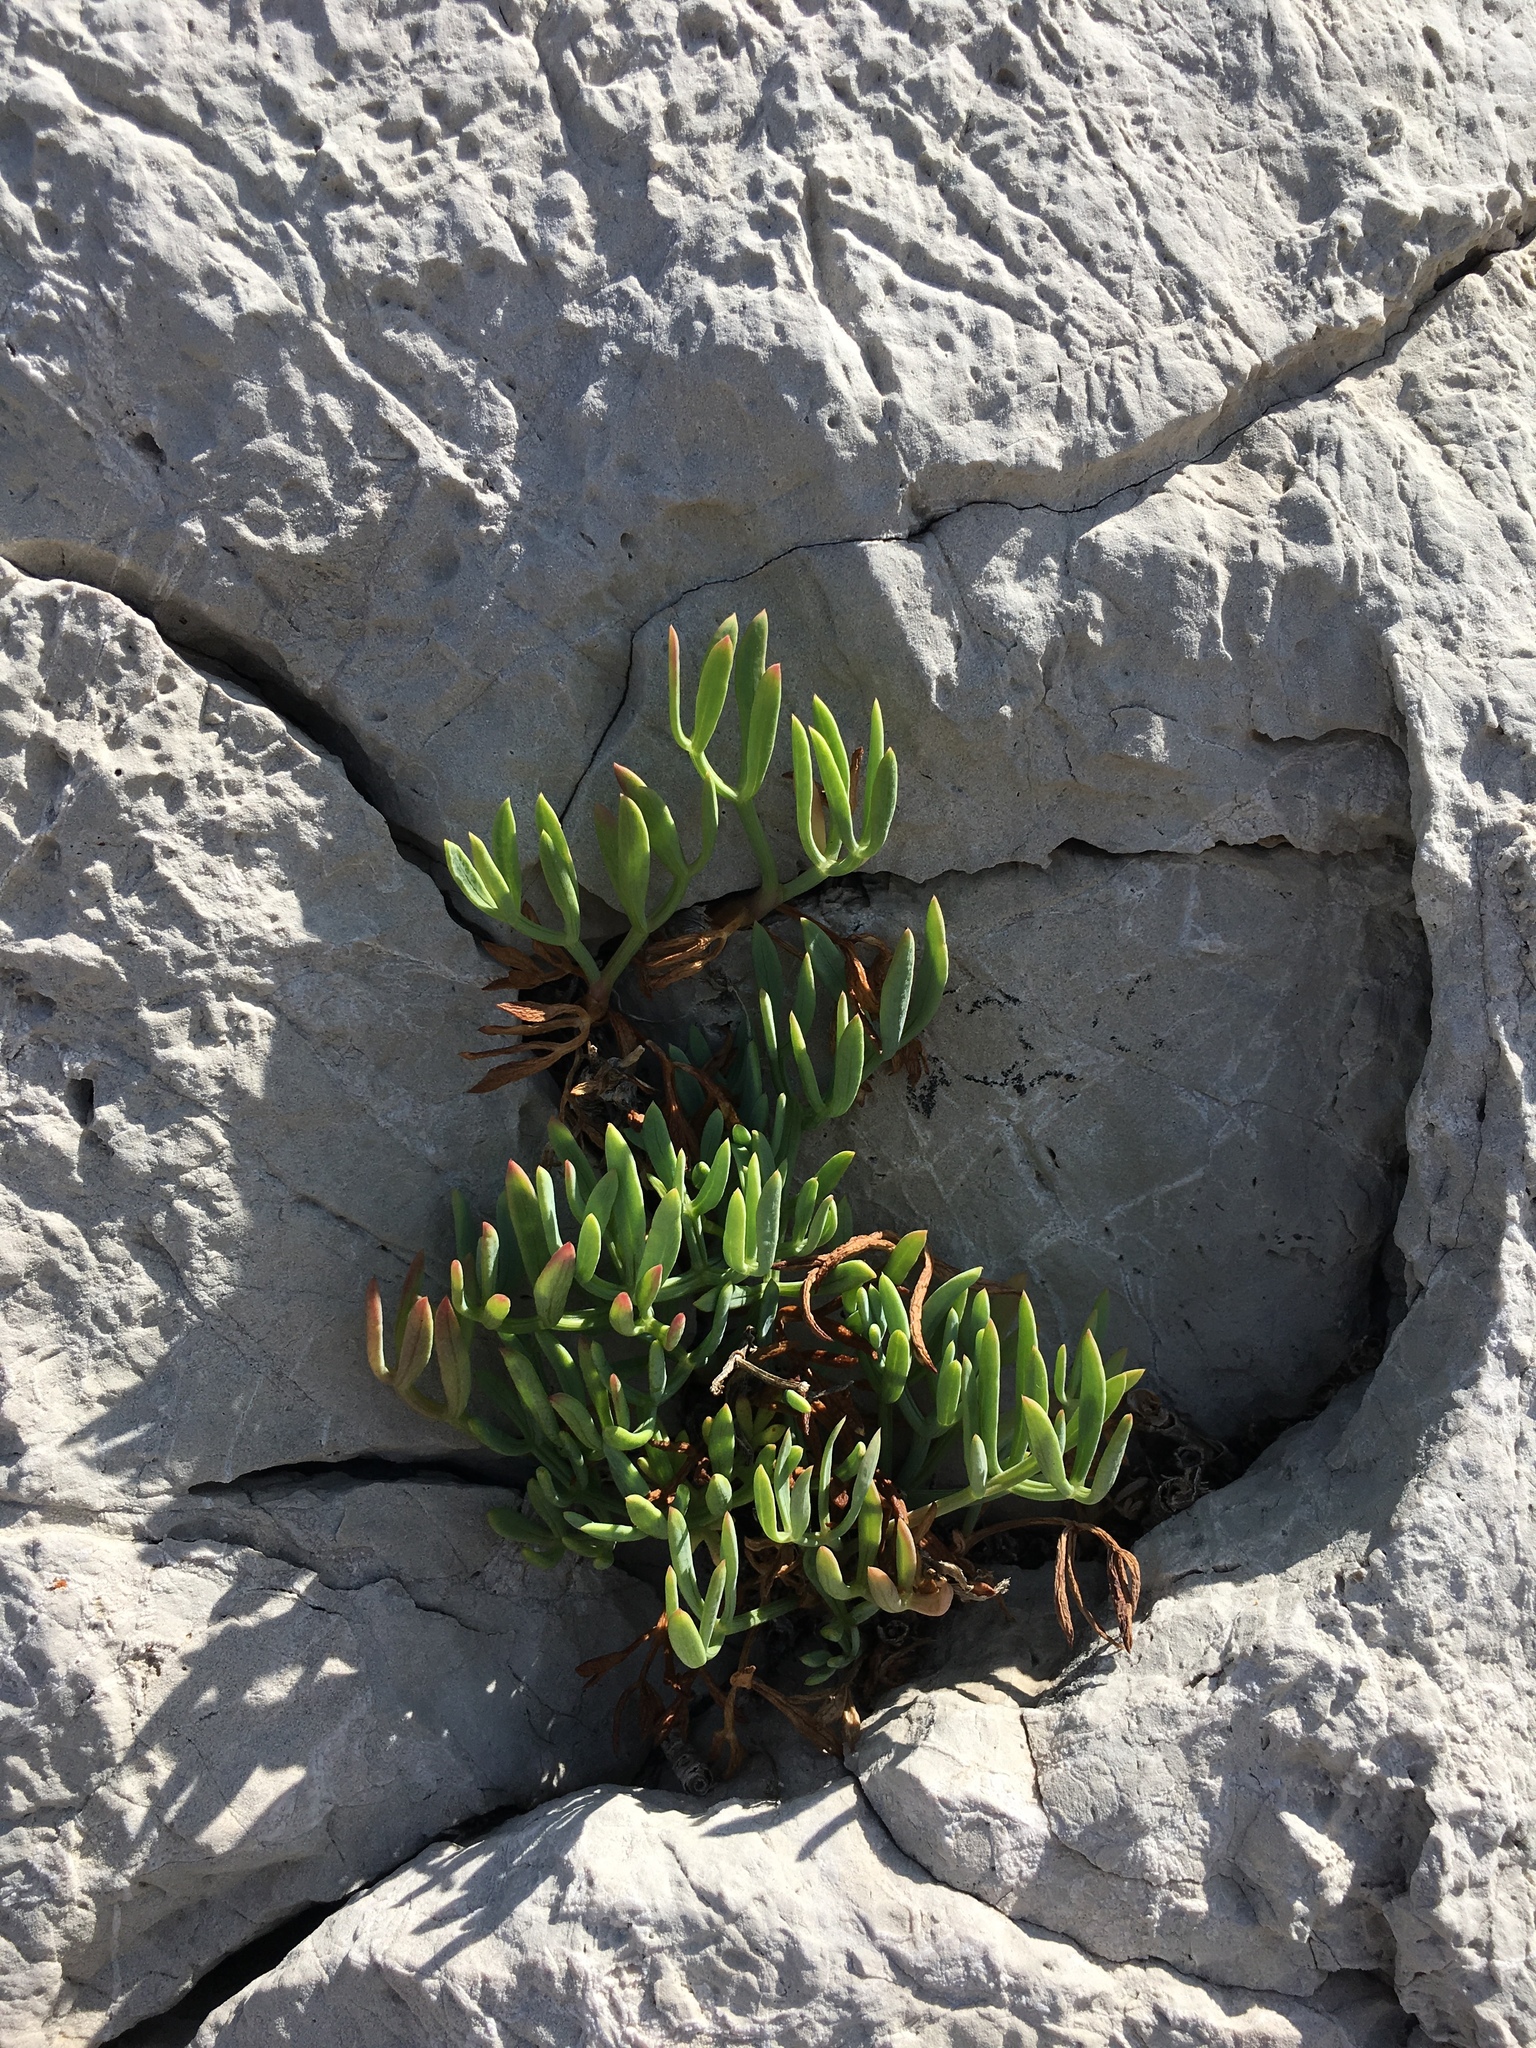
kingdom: Plantae
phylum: Tracheophyta
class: Magnoliopsida
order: Apiales
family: Apiaceae
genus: Crithmum
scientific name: Crithmum maritimum
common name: Rock samphire
